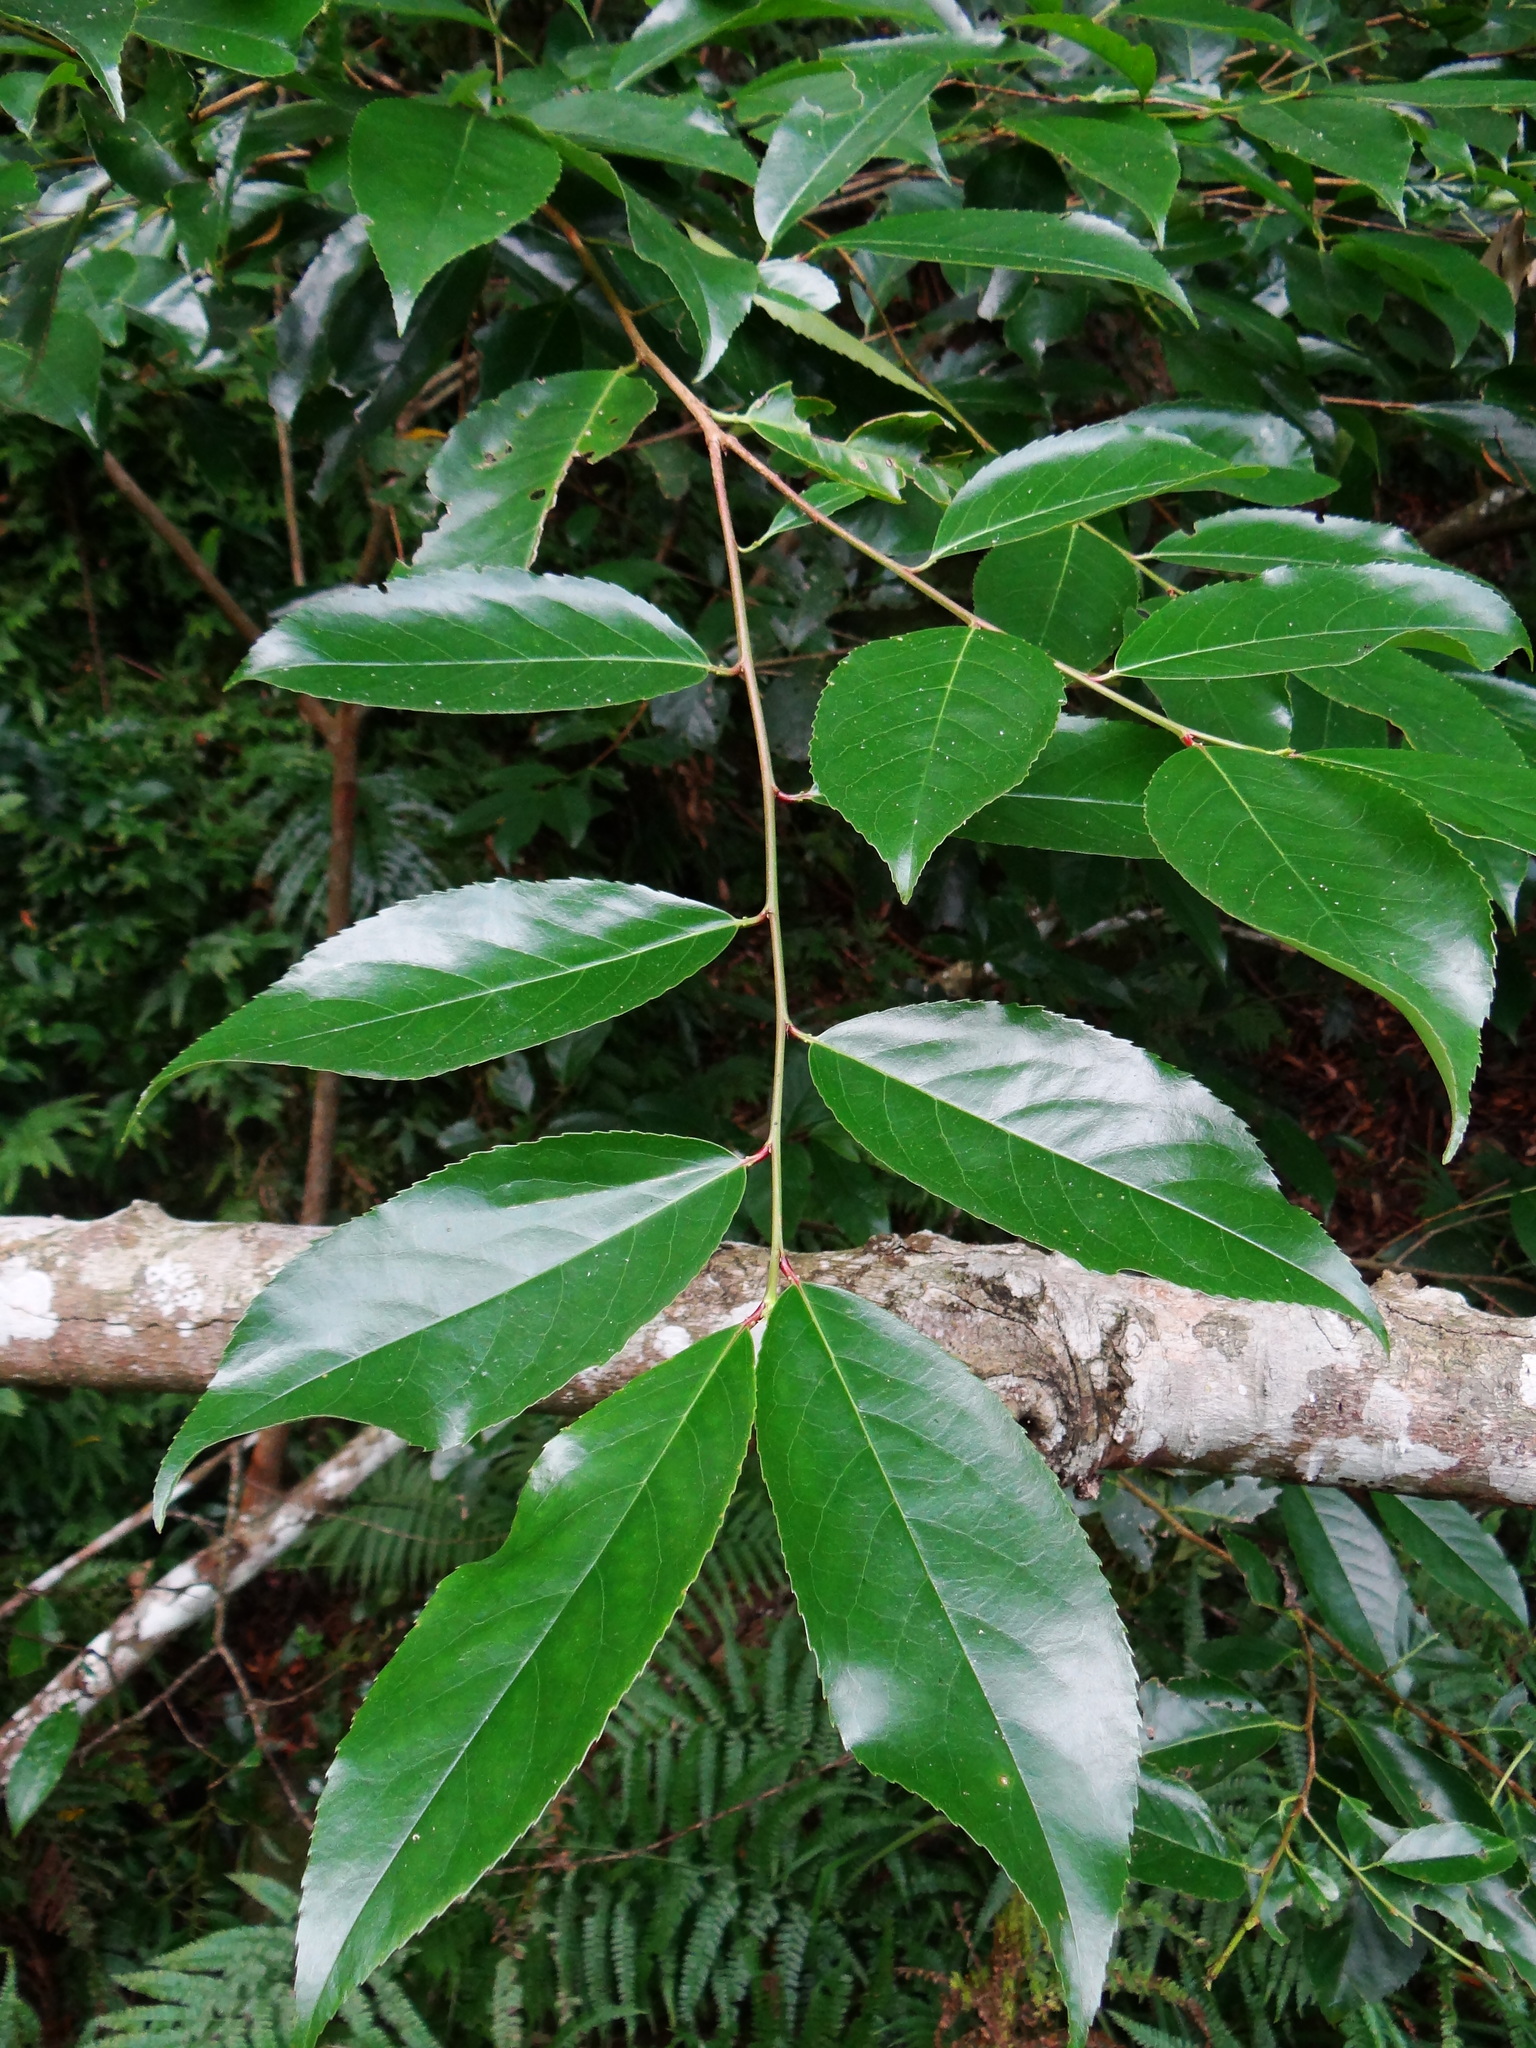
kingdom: Plantae
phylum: Tracheophyta
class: Magnoliopsida
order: Rosales
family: Rosaceae
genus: Prunus
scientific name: Prunus zippeliana
